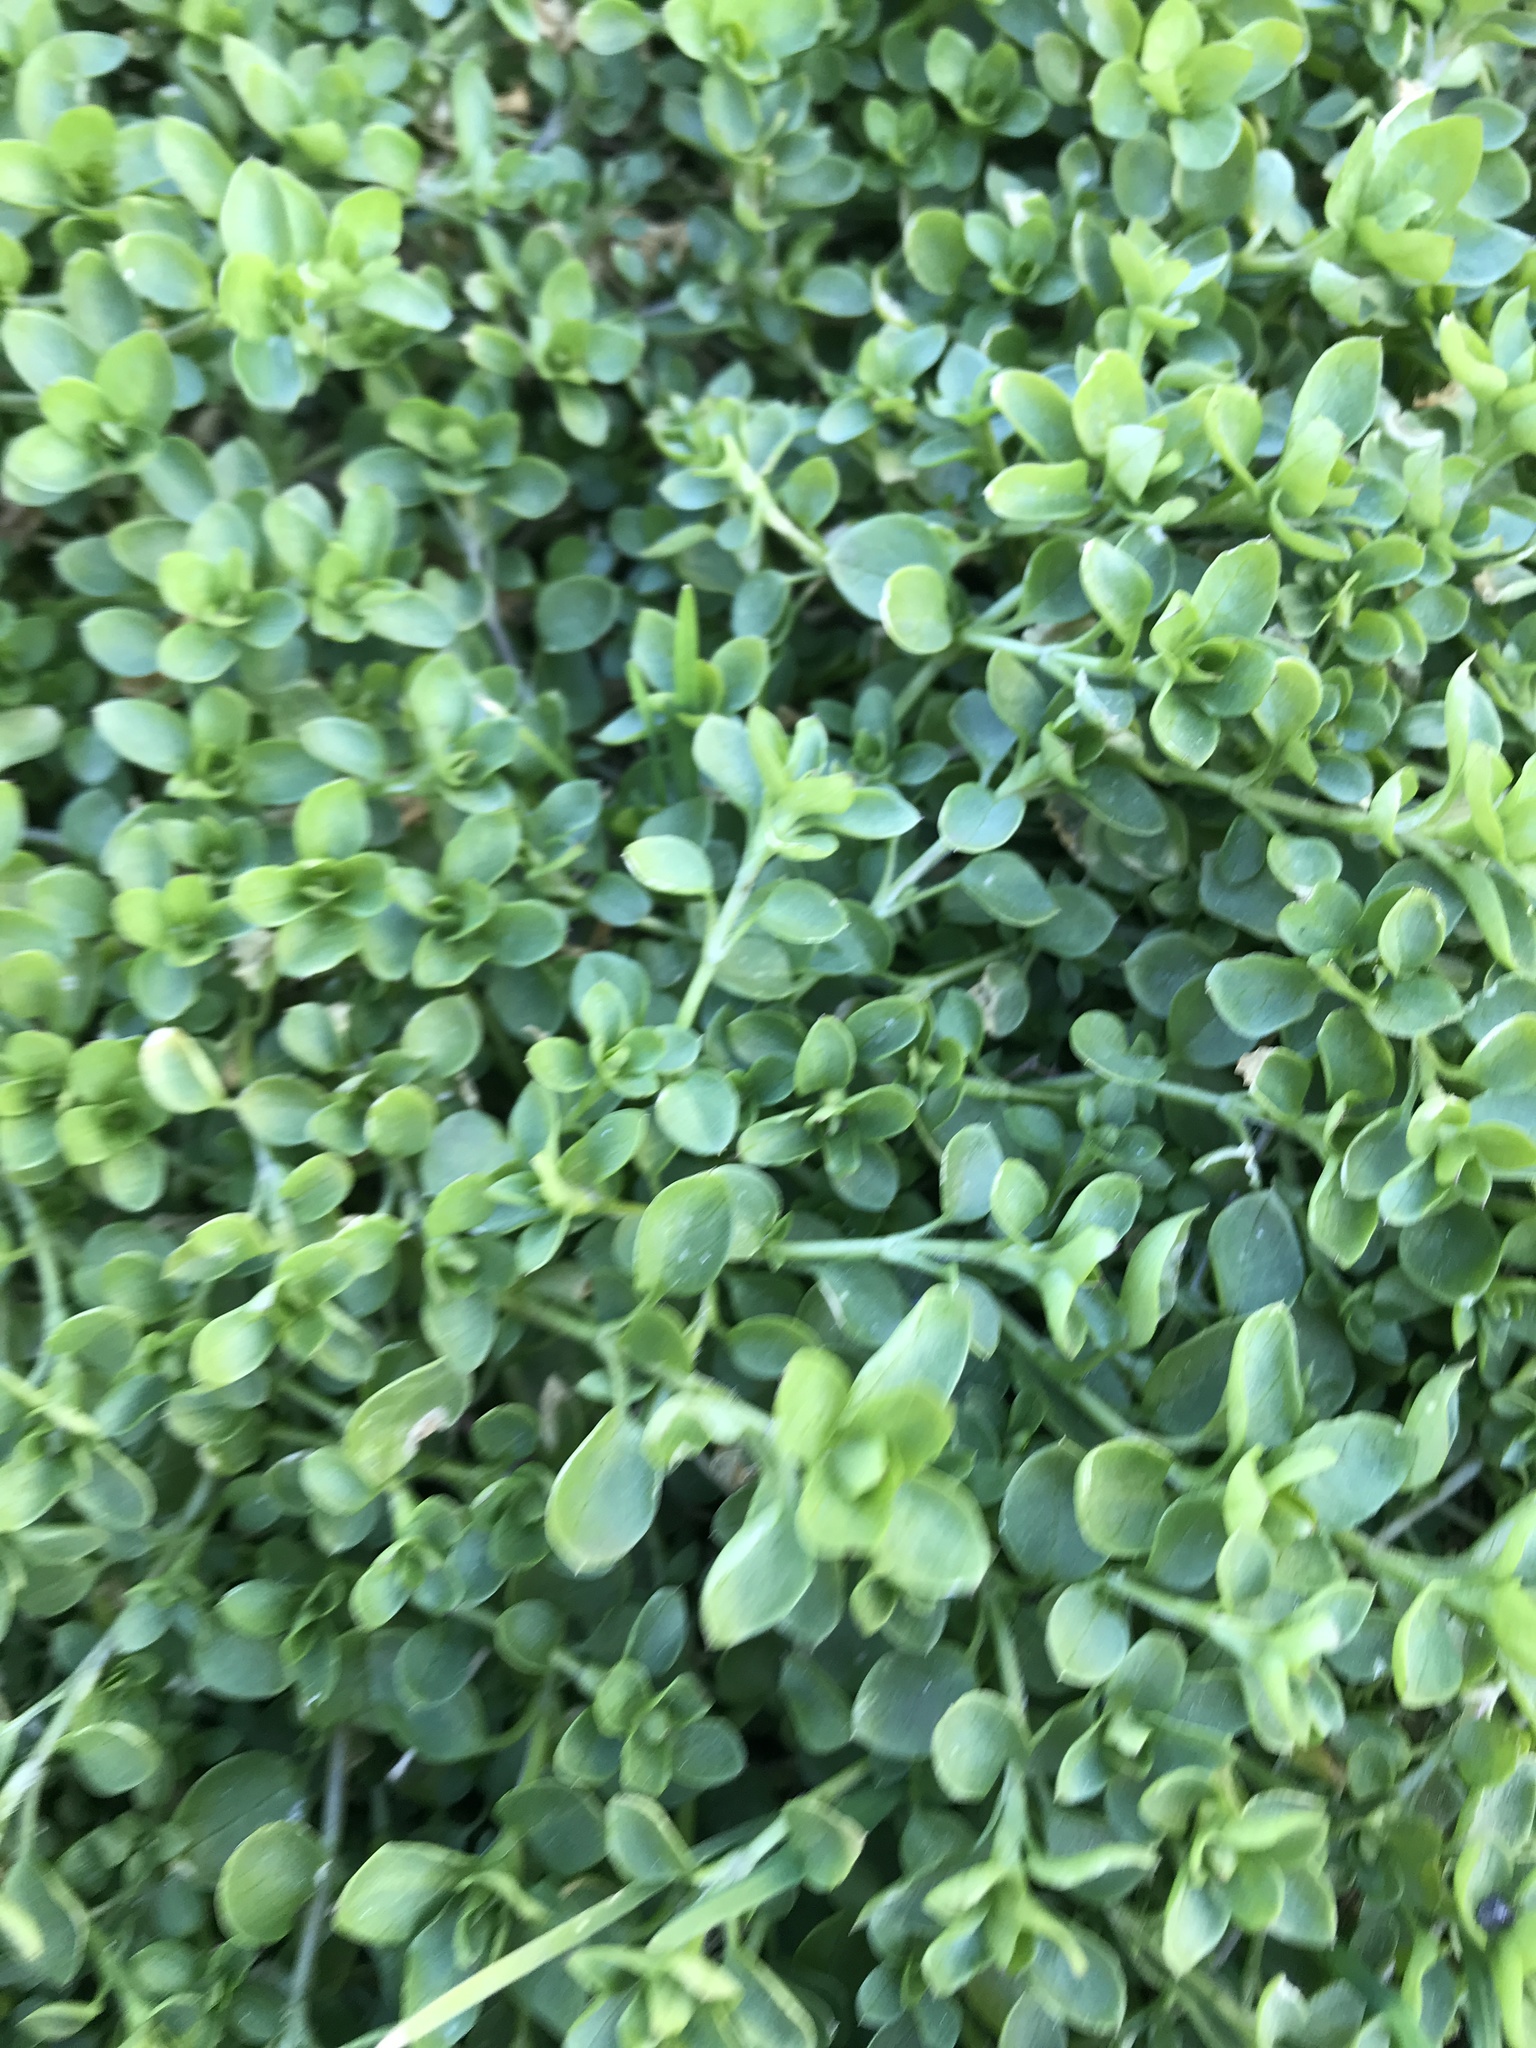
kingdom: Plantae
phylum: Tracheophyta
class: Magnoliopsida
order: Caryophyllales
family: Caryophyllaceae
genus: Stellaria
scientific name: Stellaria media
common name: Common chickweed
